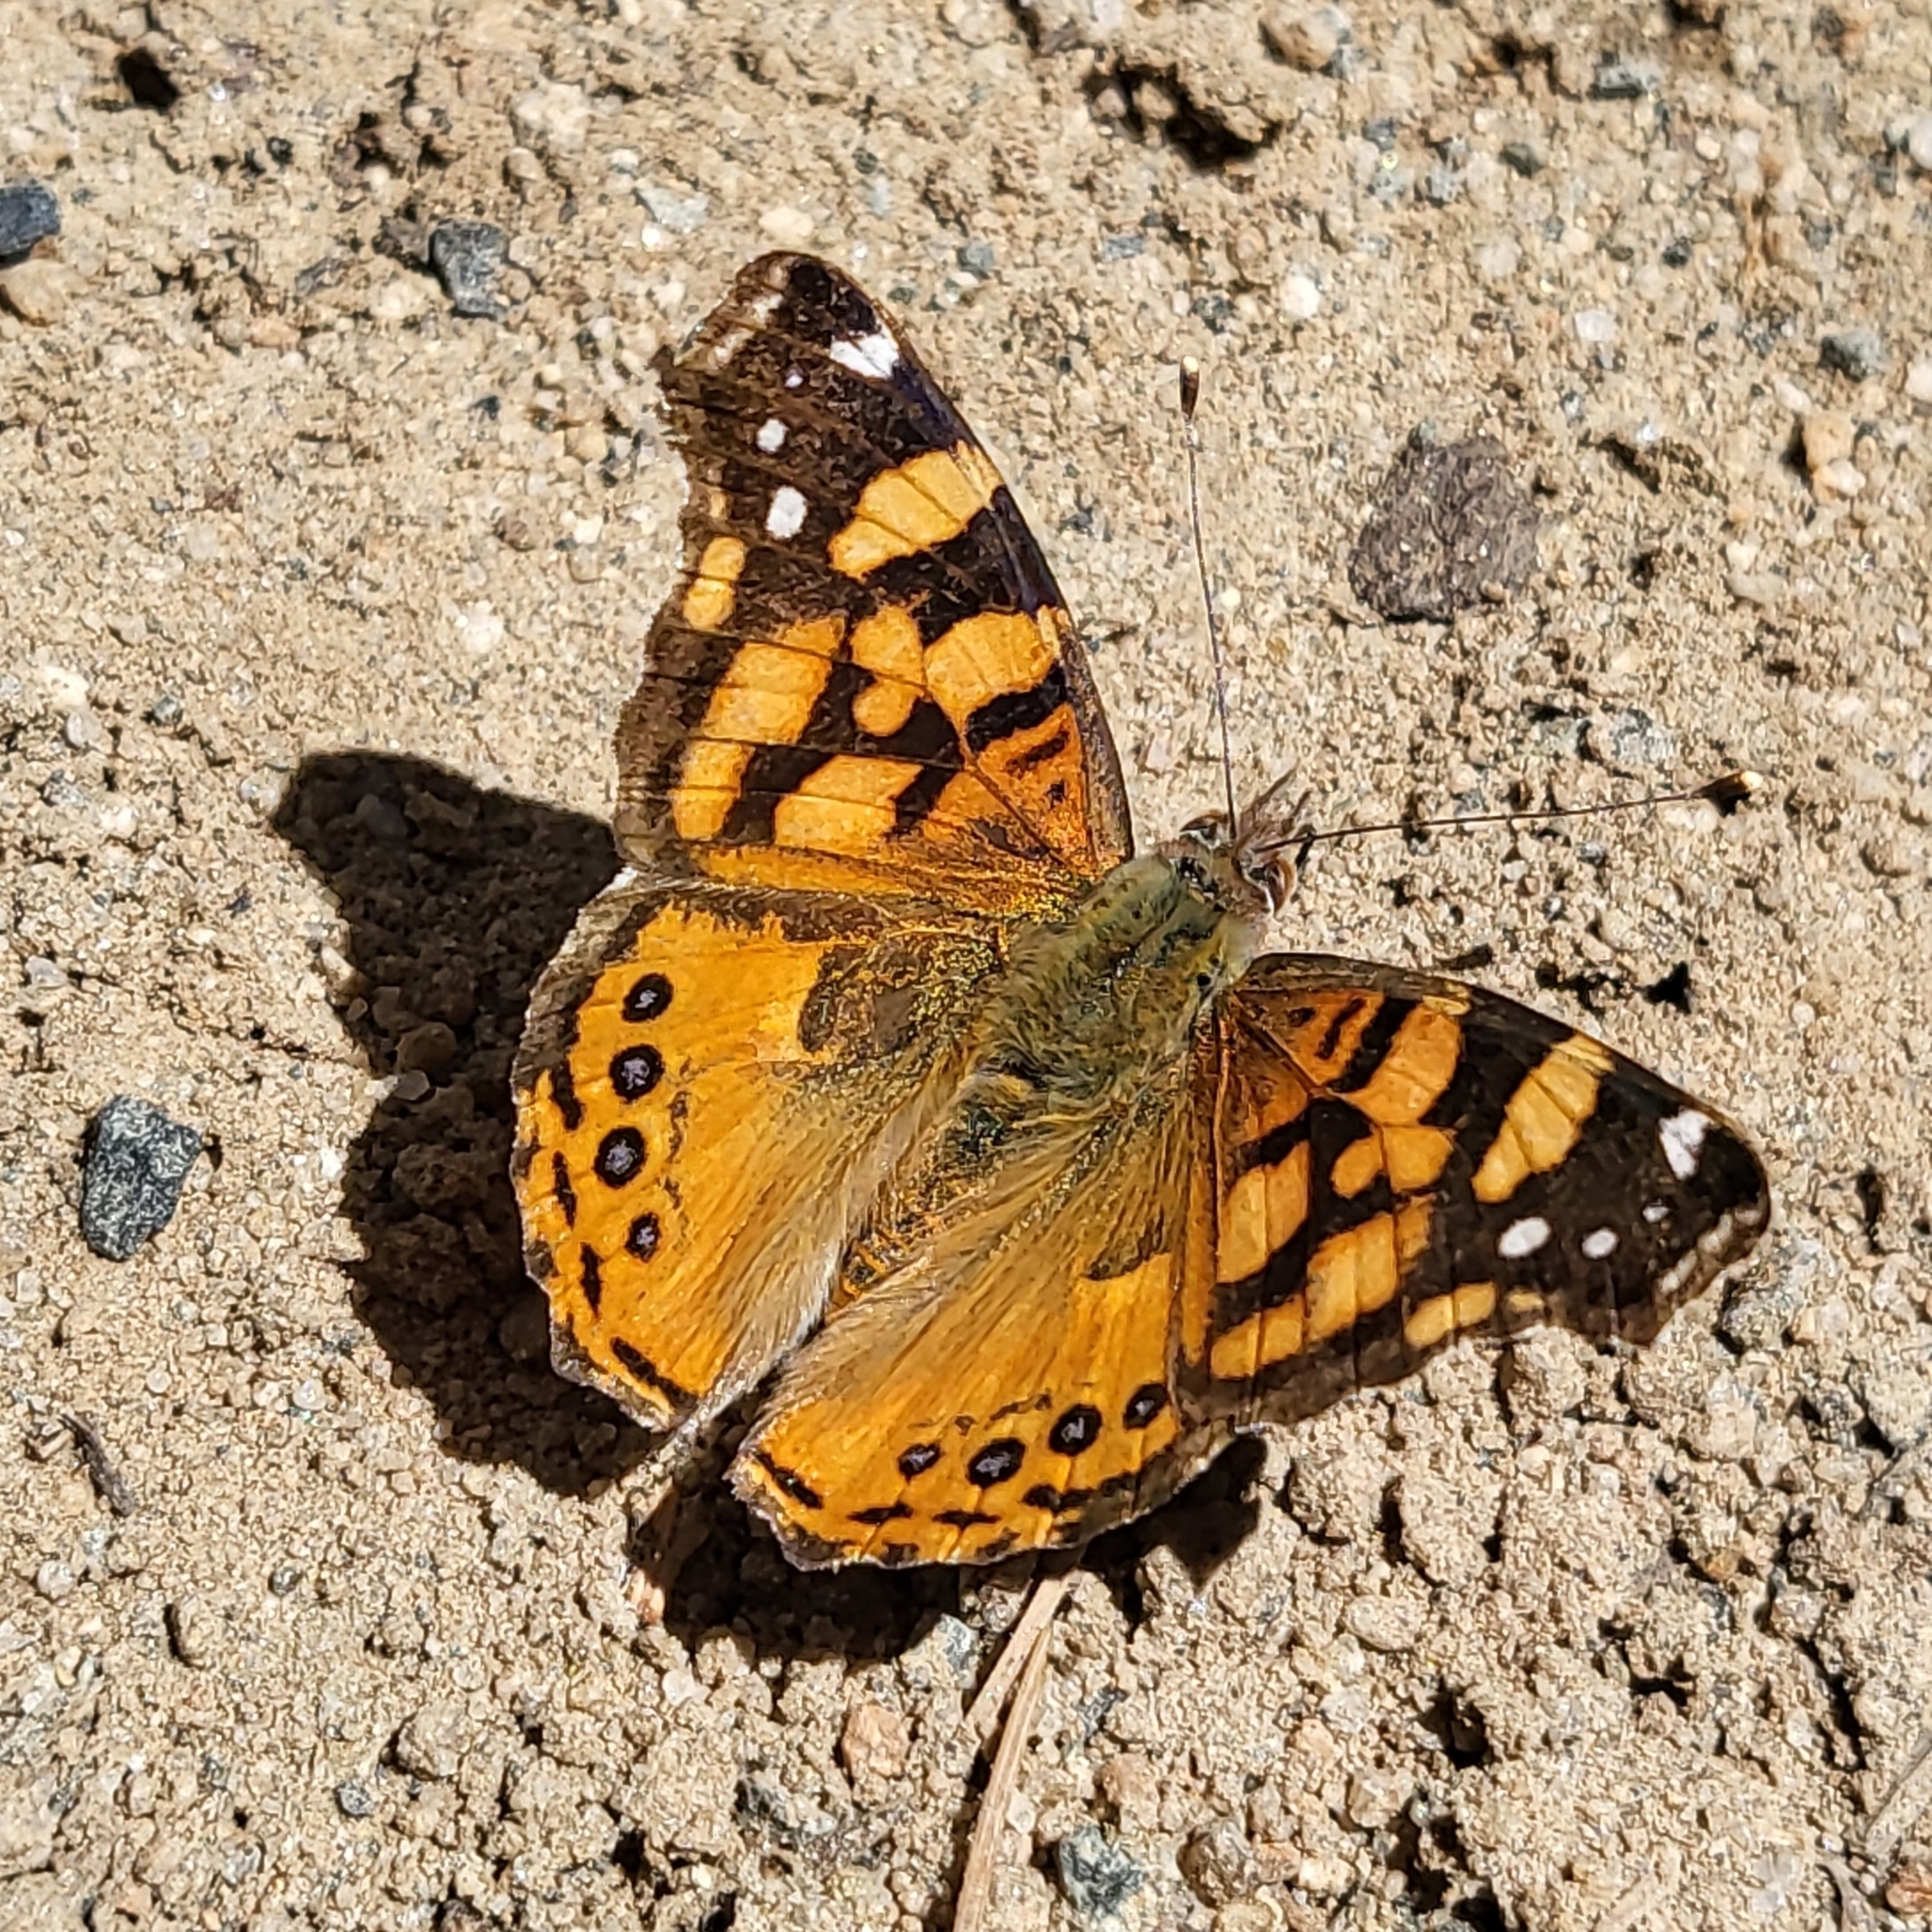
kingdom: Animalia
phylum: Arthropoda
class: Insecta
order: Lepidoptera
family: Nymphalidae
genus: Vanessa
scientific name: Vanessa annabella
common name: West coast lady
